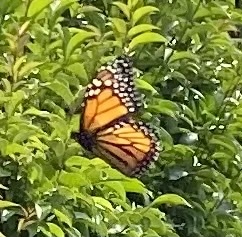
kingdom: Animalia
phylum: Arthropoda
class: Insecta
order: Lepidoptera
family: Nymphalidae
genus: Danaus
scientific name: Danaus plexippus
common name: Monarch
